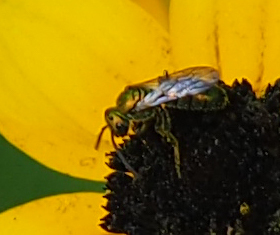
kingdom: Animalia
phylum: Arthropoda
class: Insecta
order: Hymenoptera
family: Halictidae
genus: Augochlora
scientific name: Augochlora pura
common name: Pure green sweat bee
